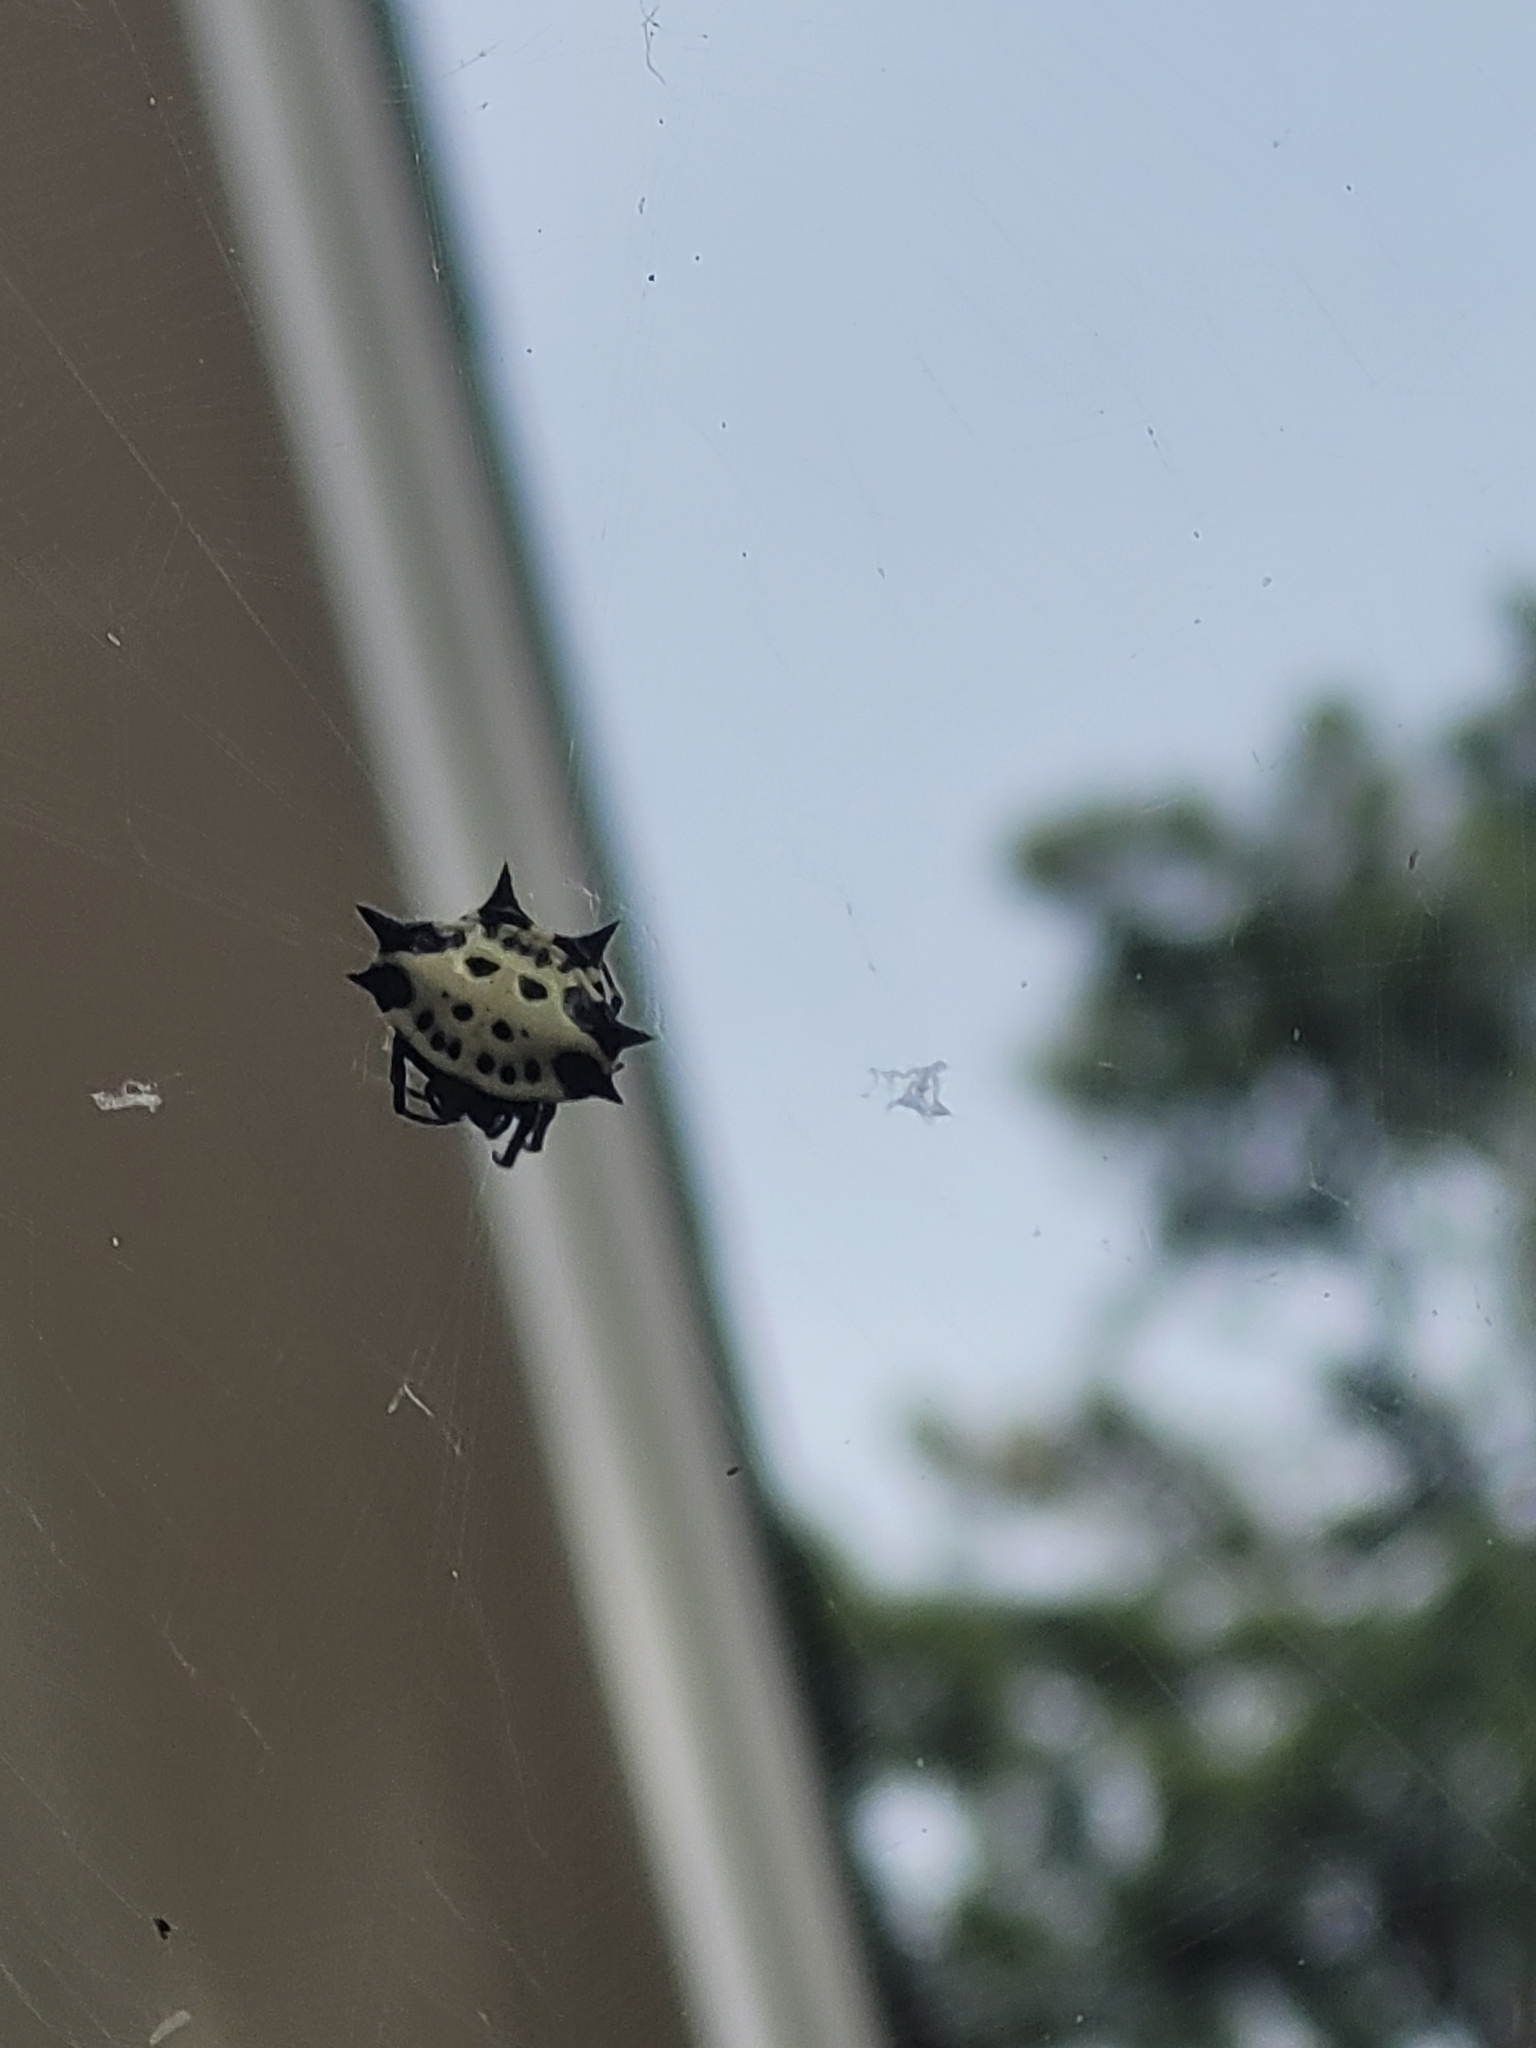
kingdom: Animalia
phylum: Arthropoda
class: Arachnida
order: Araneae
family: Araneidae
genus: Gasteracantha
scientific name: Gasteracantha cancriformis
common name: Orb weavers
